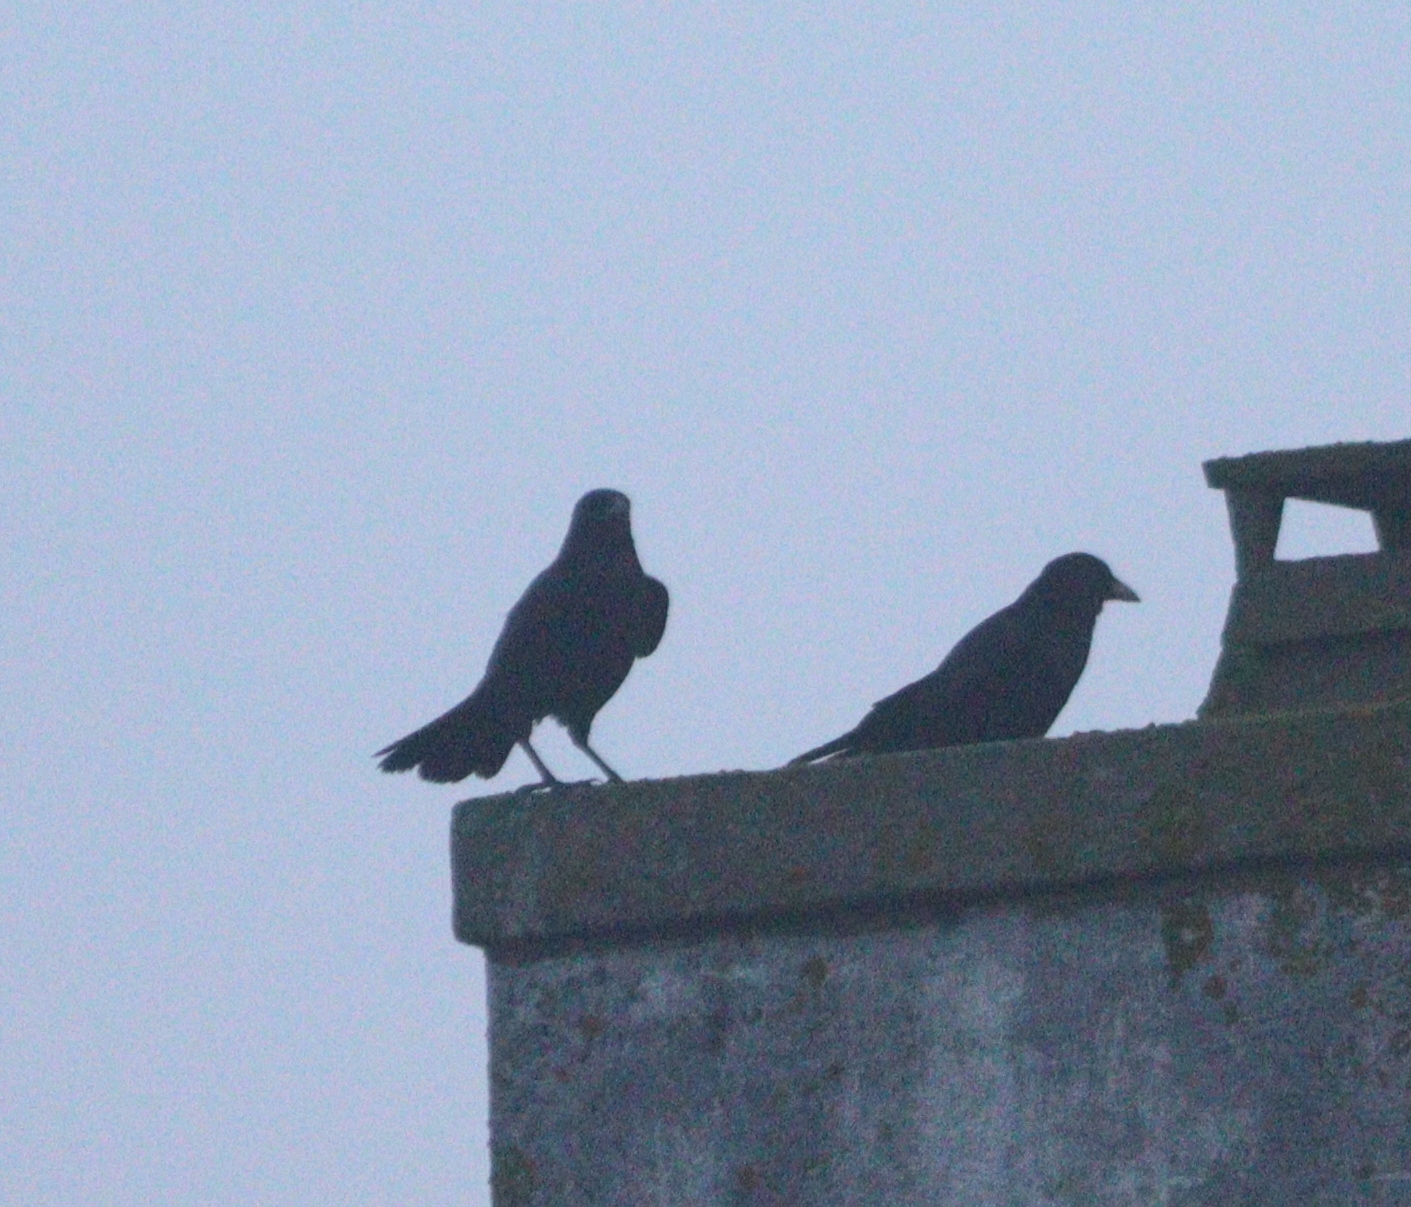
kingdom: Animalia
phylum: Chordata
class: Aves
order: Passeriformes
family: Corvidae
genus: Corvus
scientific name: Corvus corone
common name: Carrion crow
